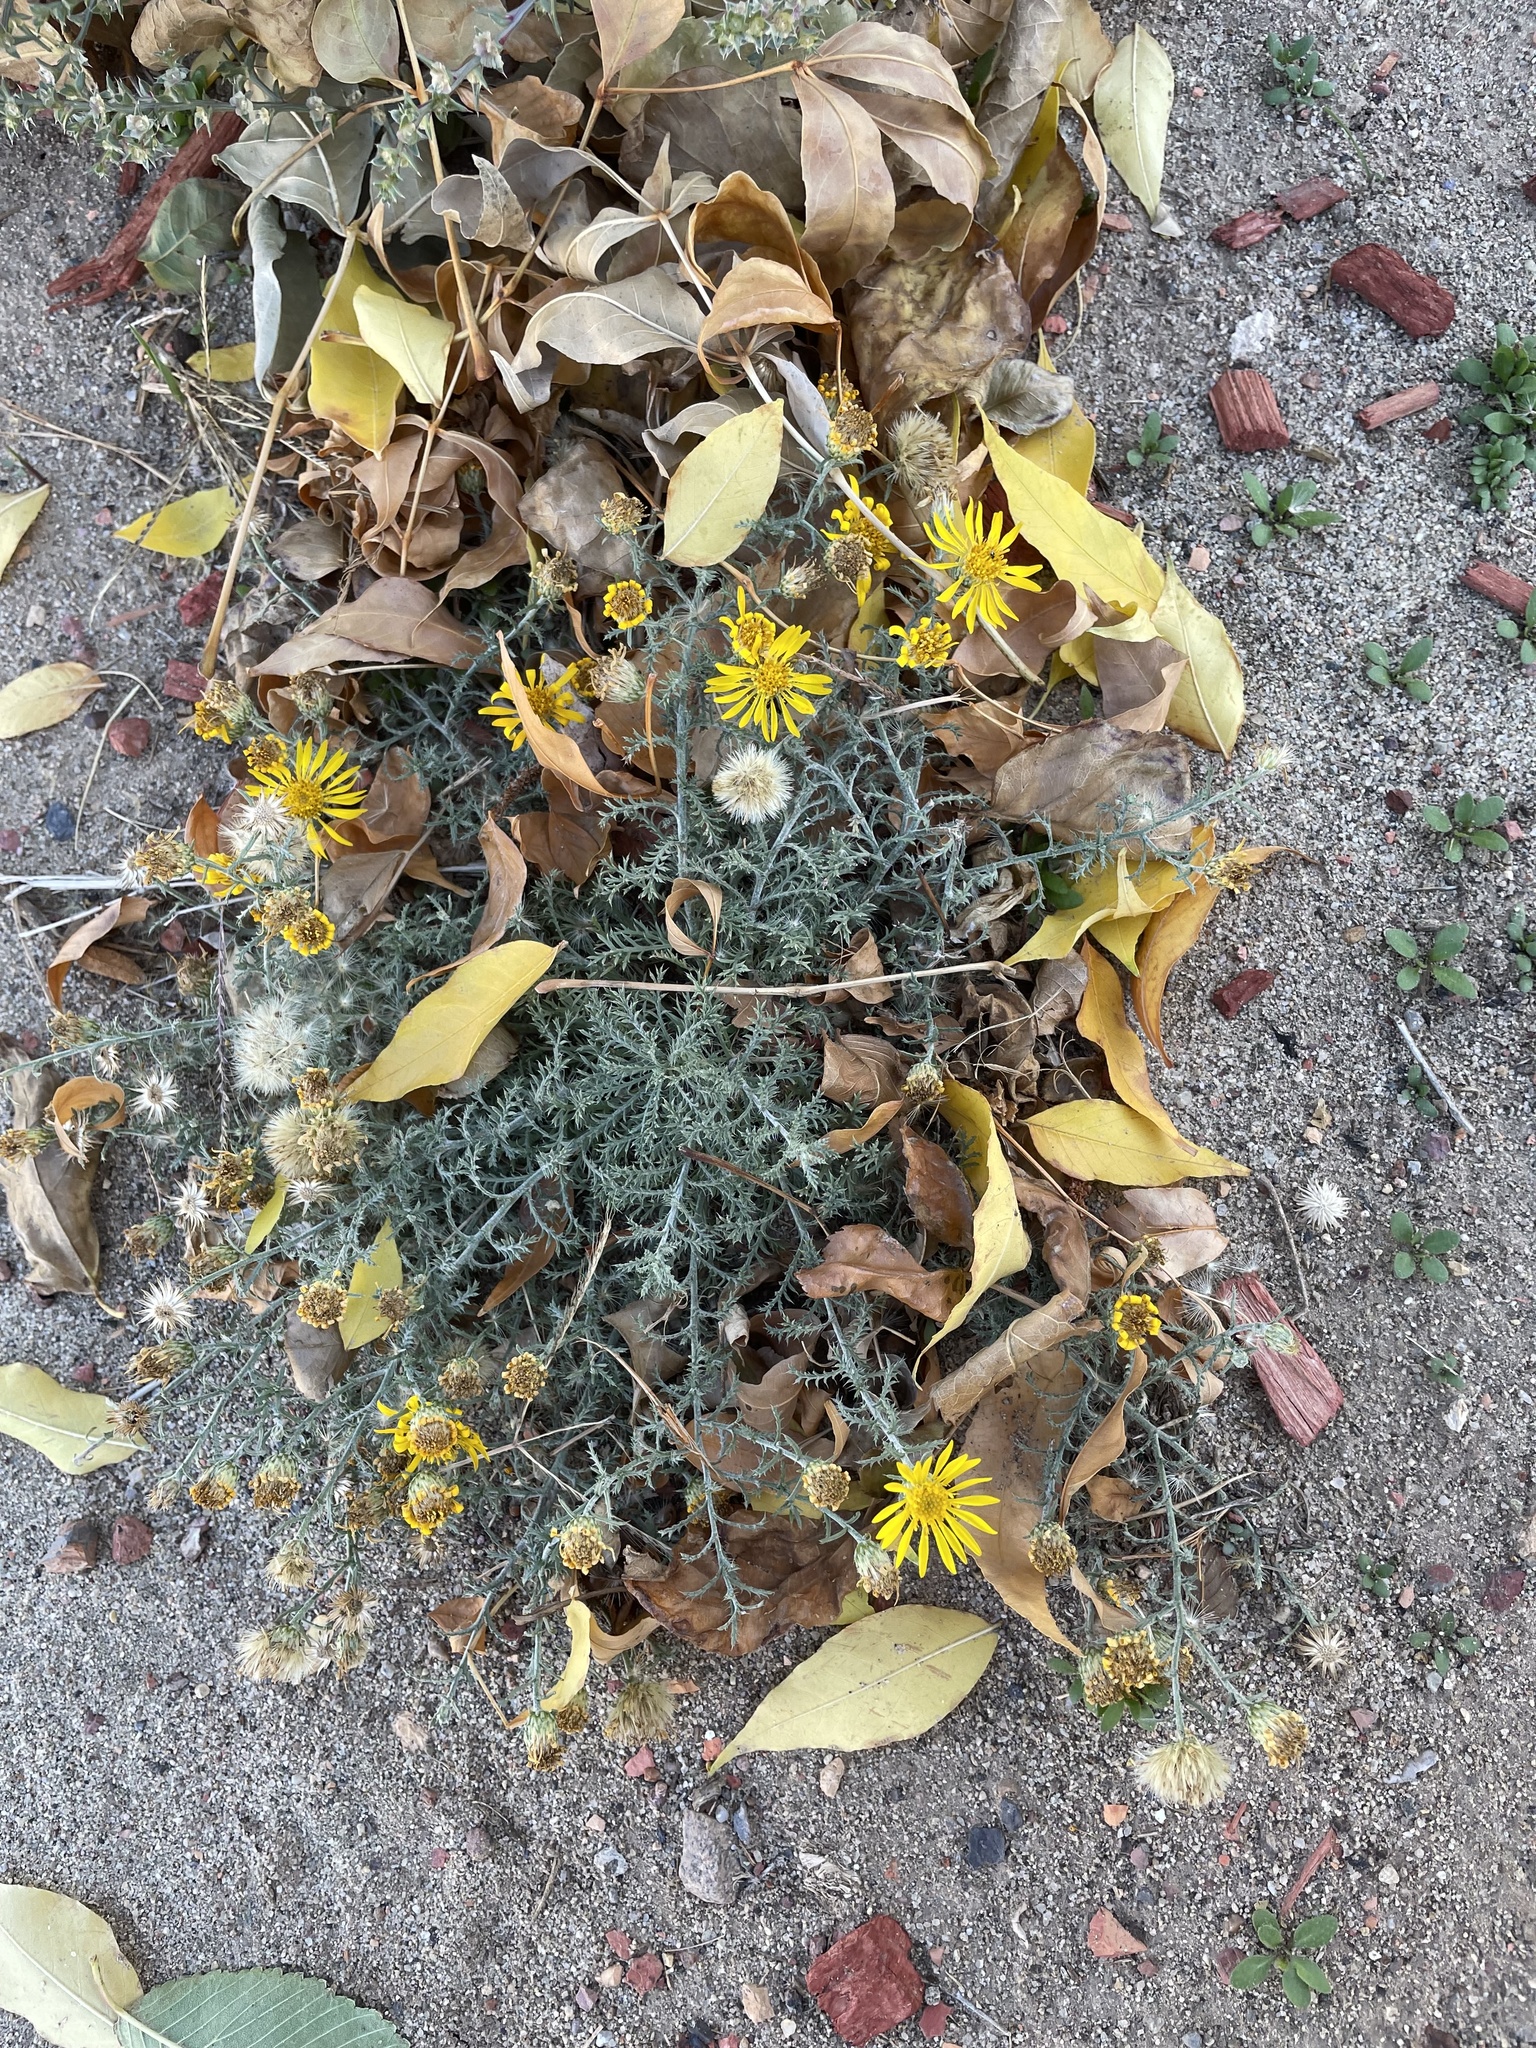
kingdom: Plantae
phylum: Tracheophyta
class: Magnoliopsida
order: Asterales
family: Asteraceae
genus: Xanthisma
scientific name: Xanthisma spinulosum
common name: Spiny goldenweed
